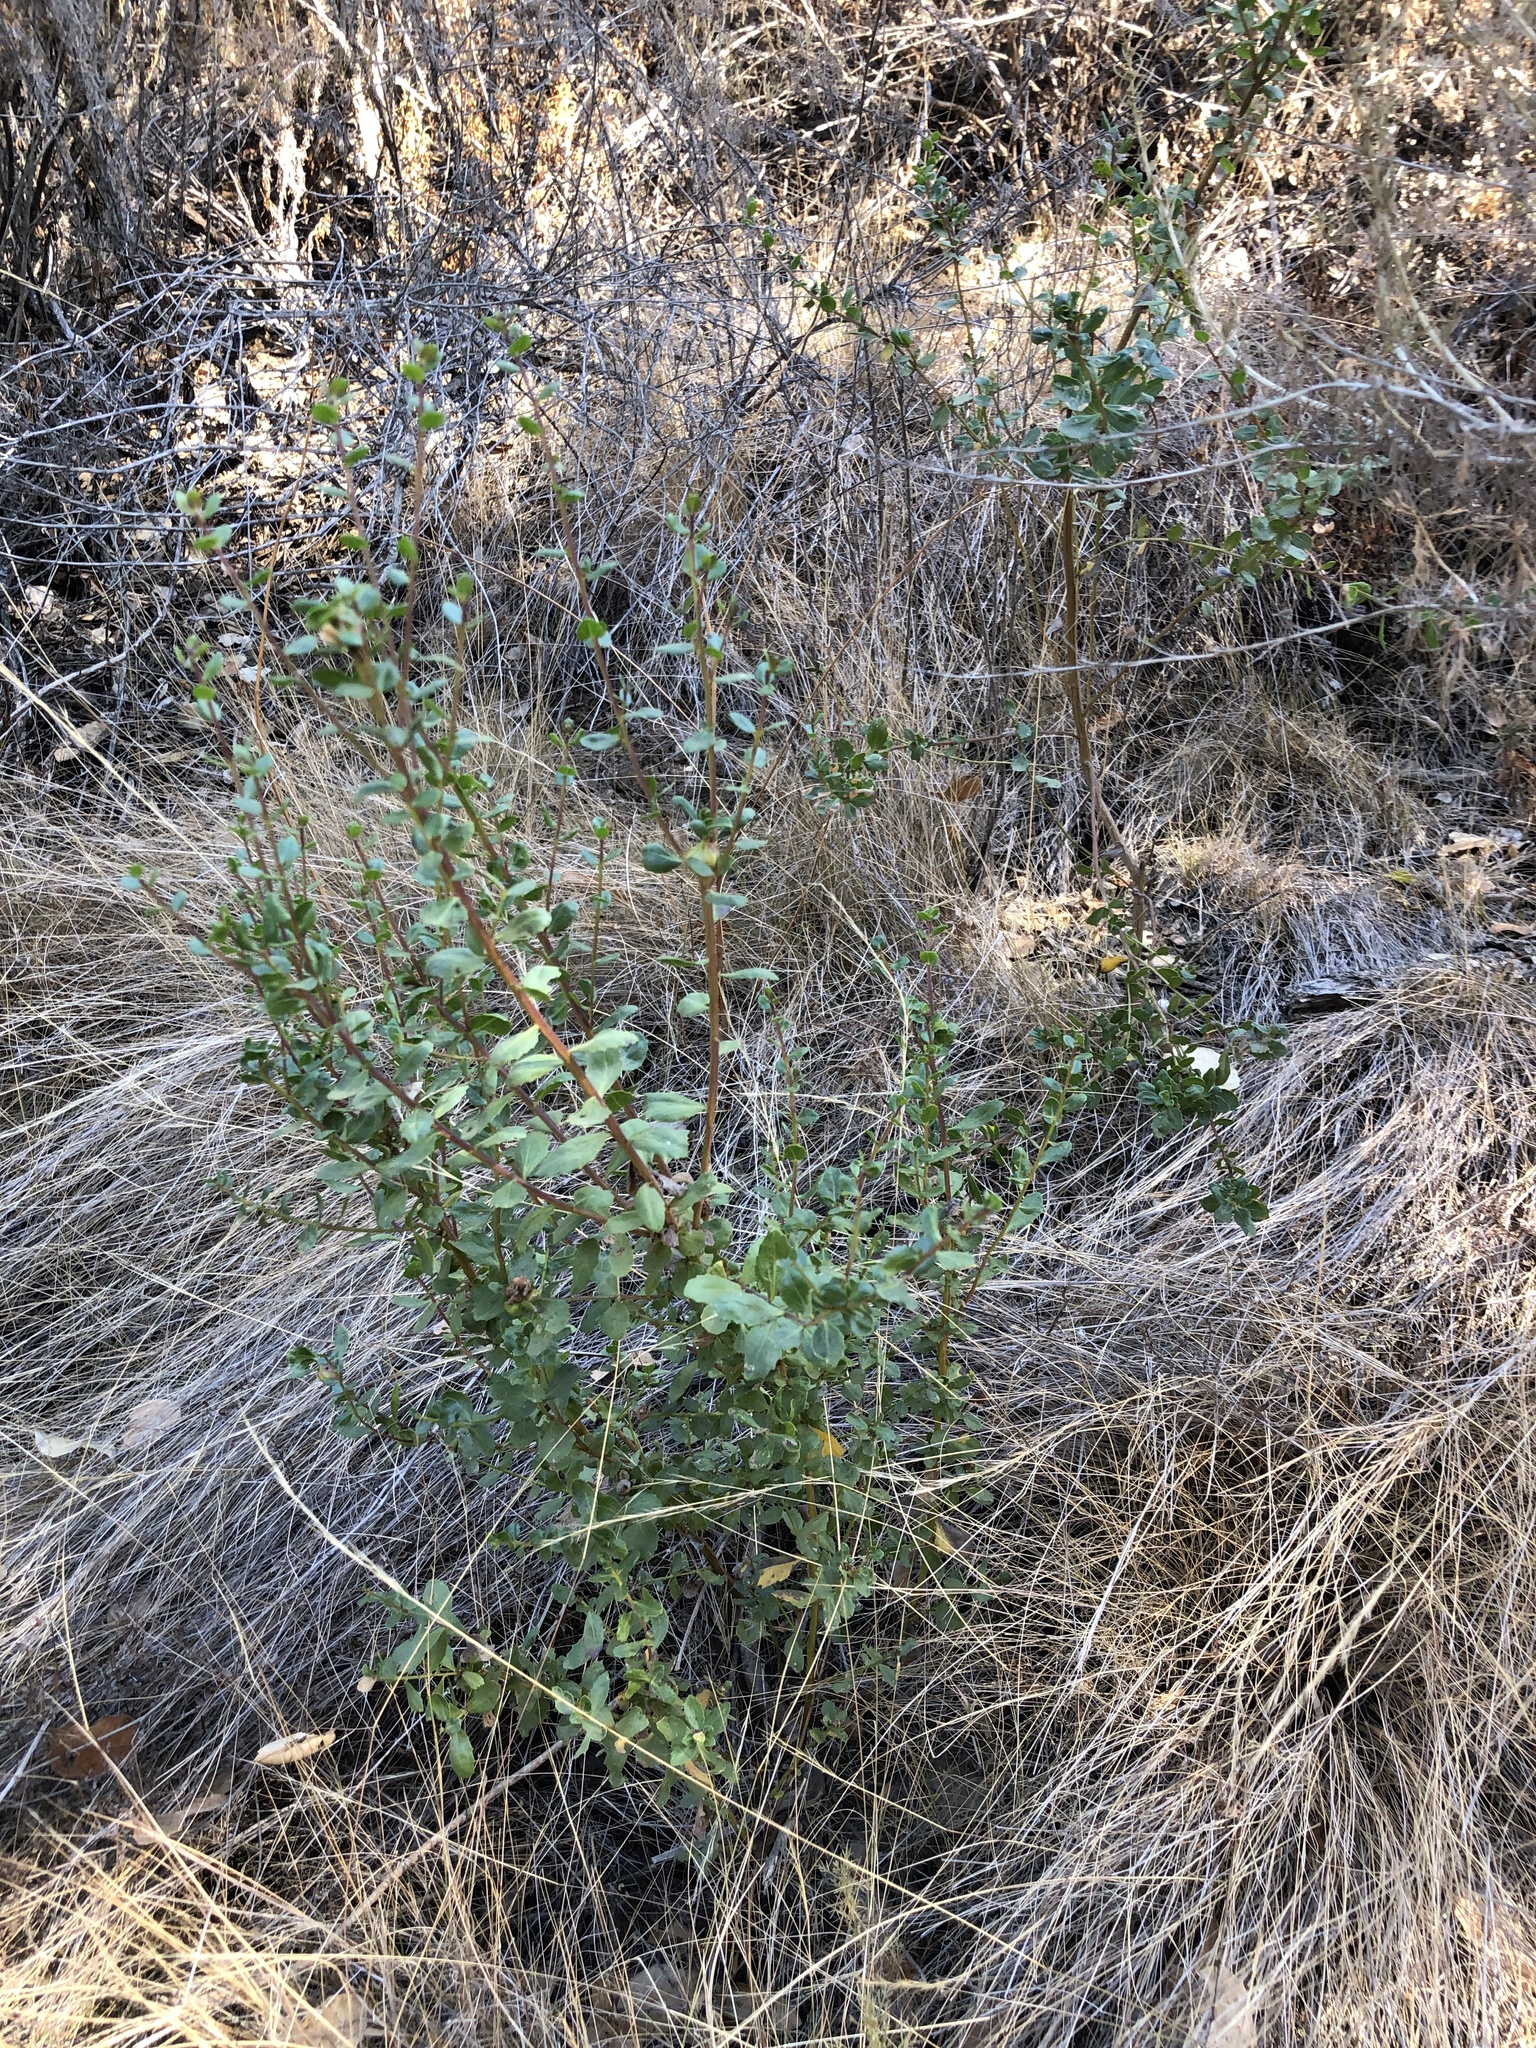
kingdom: Plantae
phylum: Tracheophyta
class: Magnoliopsida
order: Asterales
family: Asteraceae
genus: Baccharis
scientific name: Baccharis pilularis
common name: Coyotebrush
